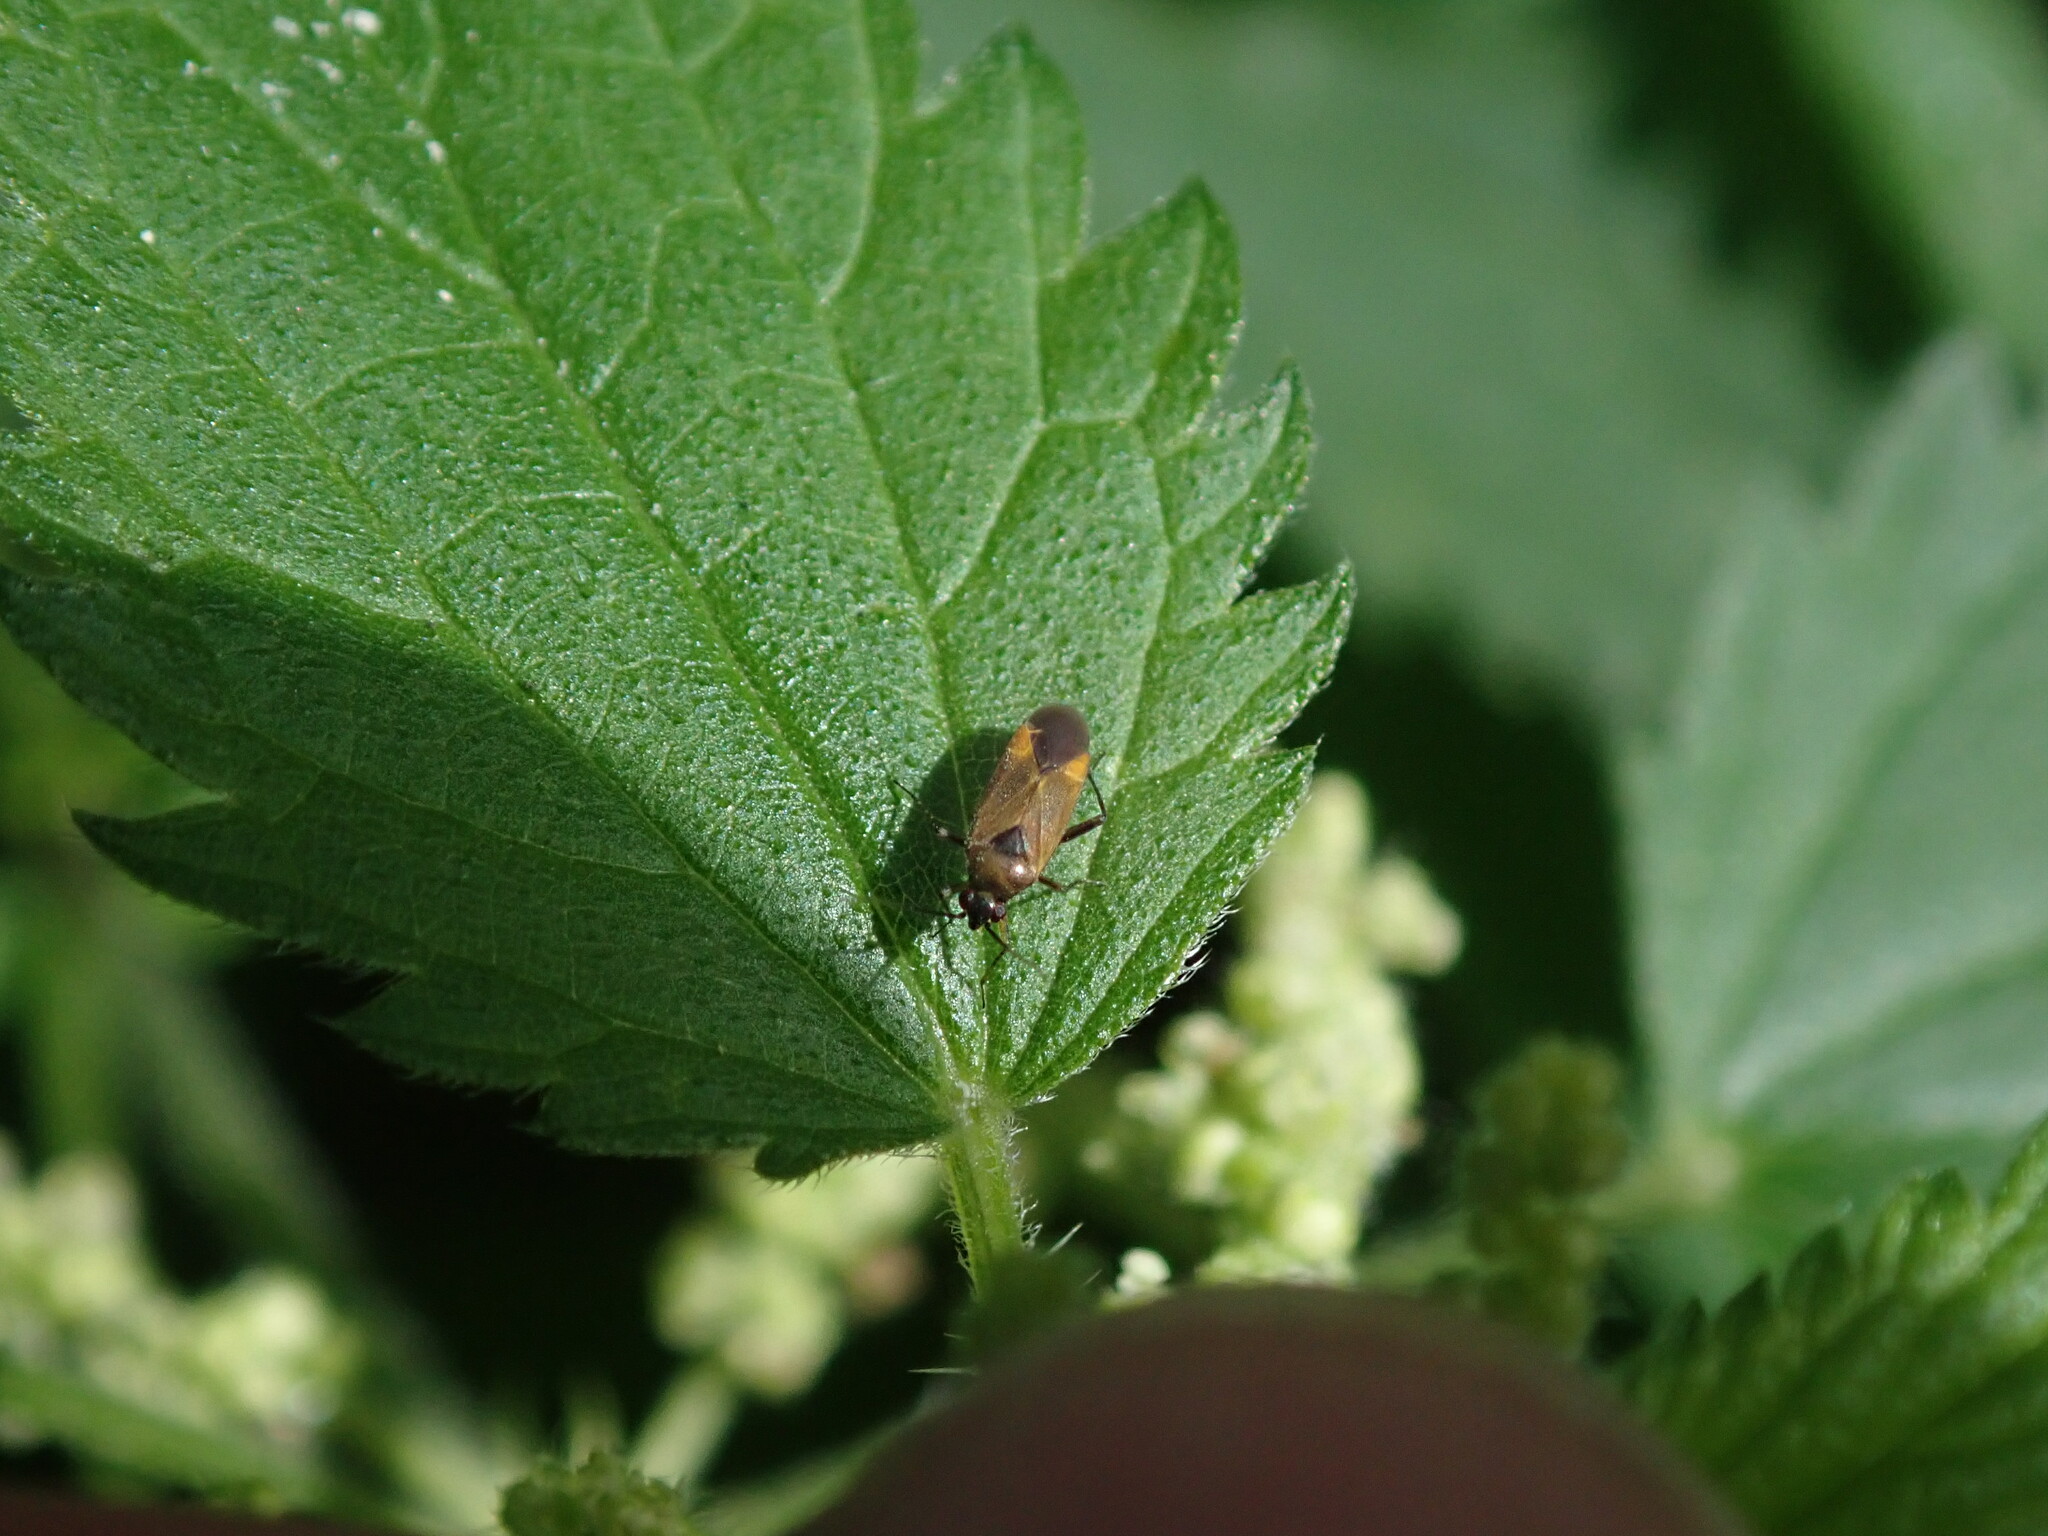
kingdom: Animalia
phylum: Arthropoda
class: Insecta
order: Hemiptera
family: Miridae
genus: Plagiognathus
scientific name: Plagiognathus arbustorum
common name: Plant bug
